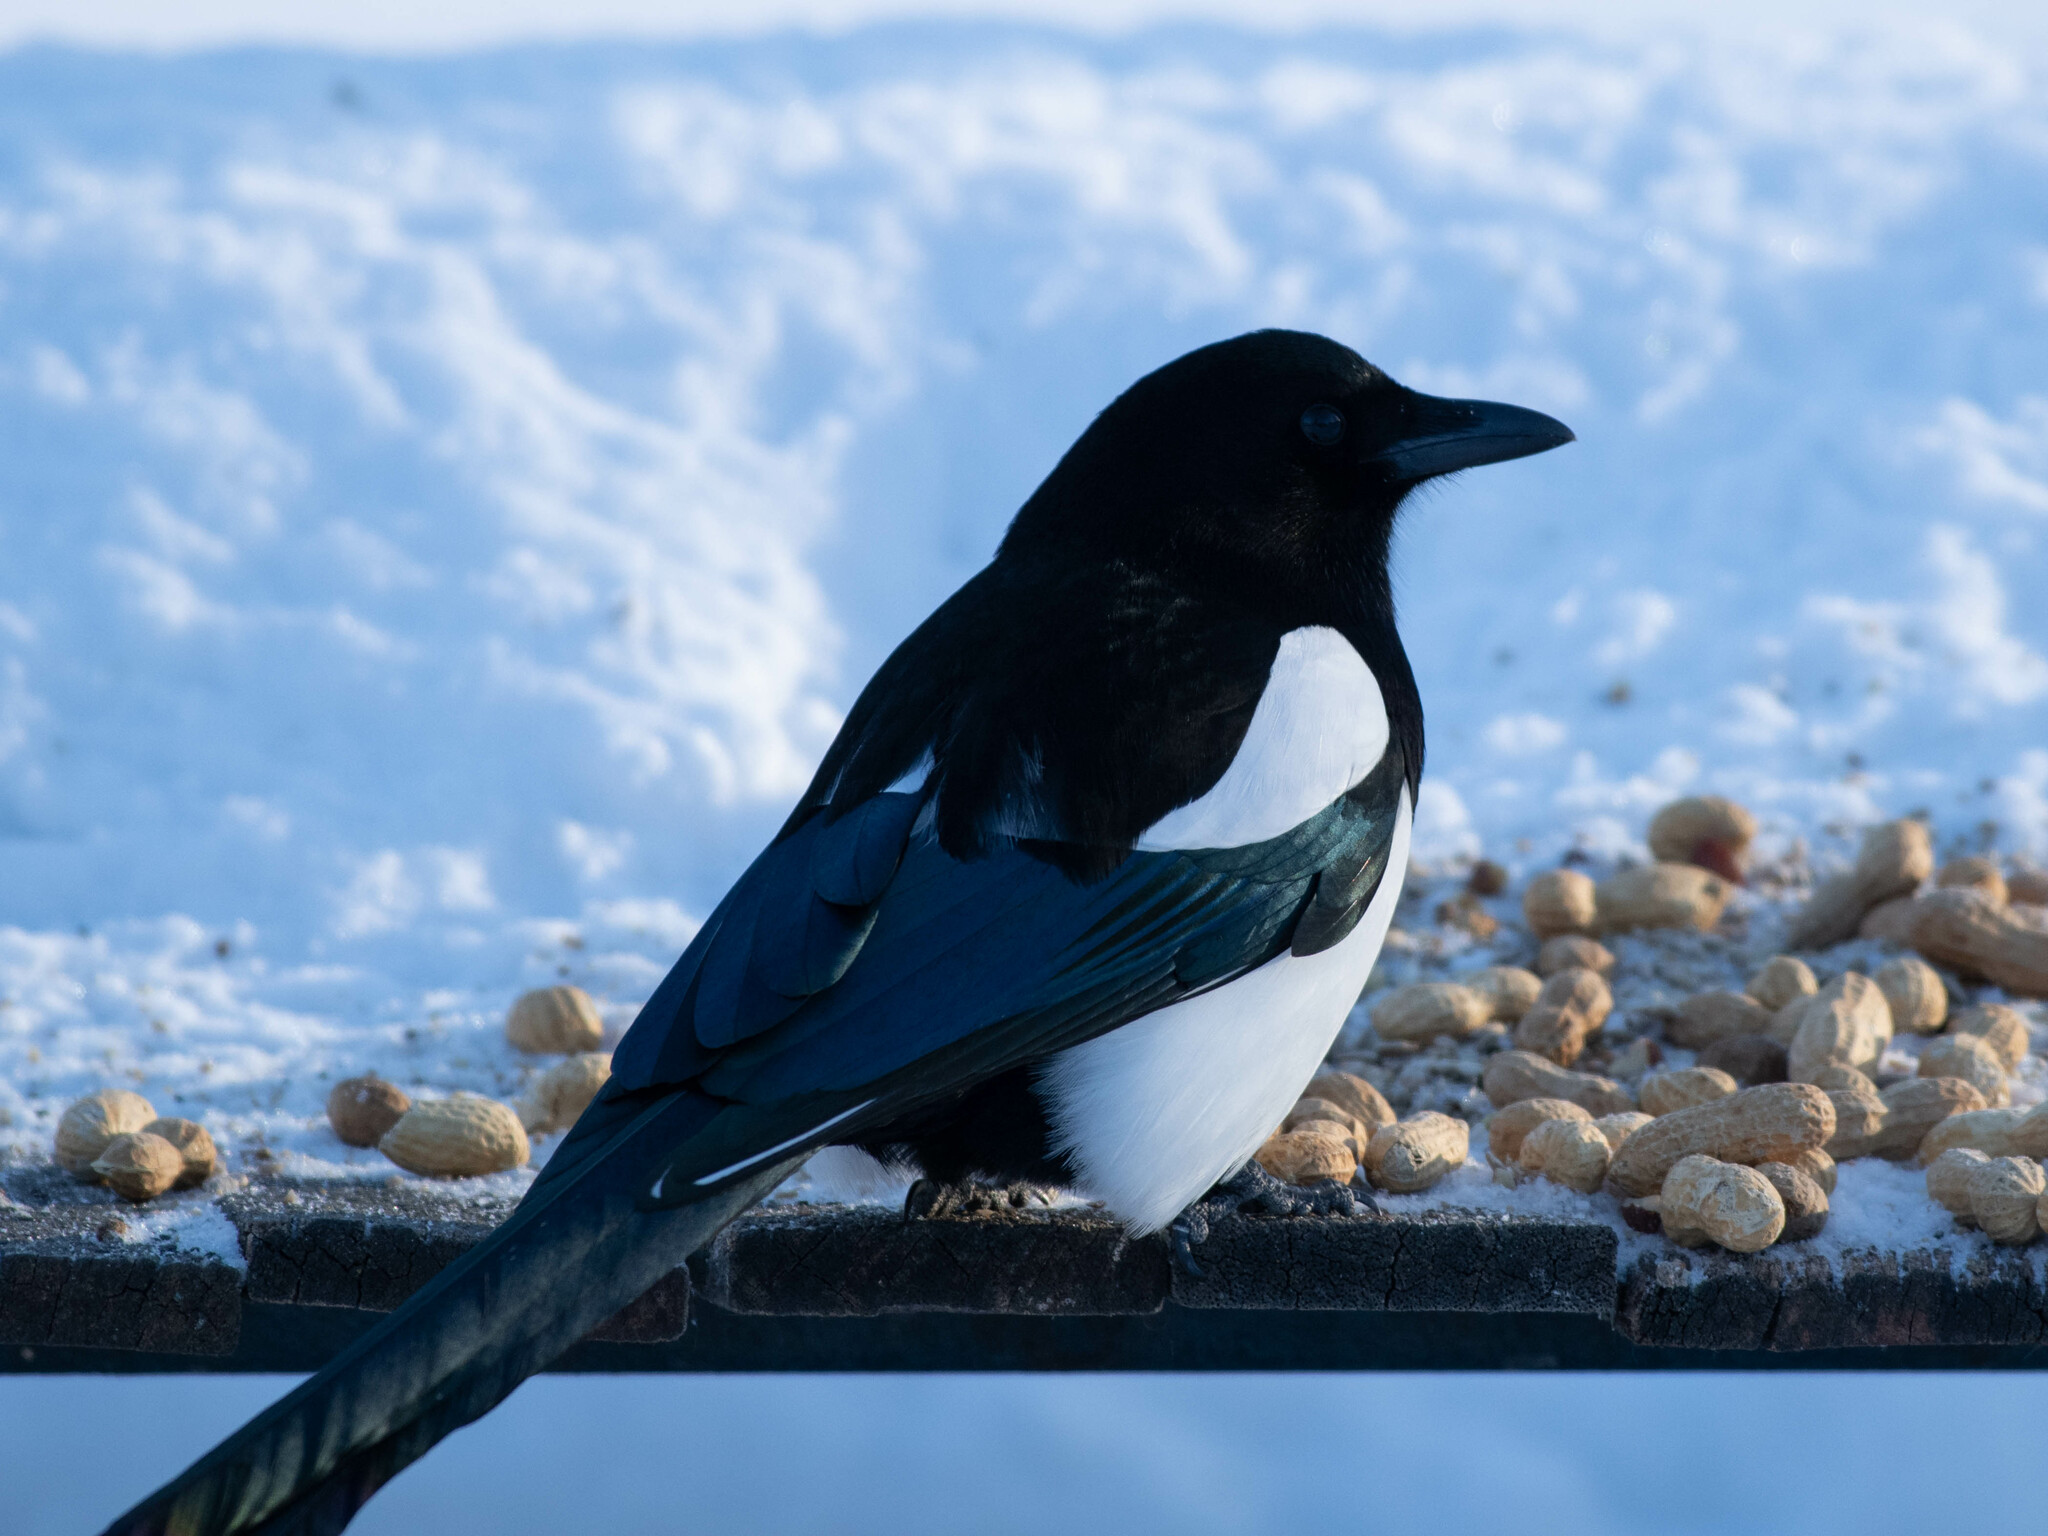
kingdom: Animalia
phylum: Chordata
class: Aves
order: Passeriformes
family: Corvidae
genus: Pica
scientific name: Pica hudsonia
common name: Black-billed magpie
